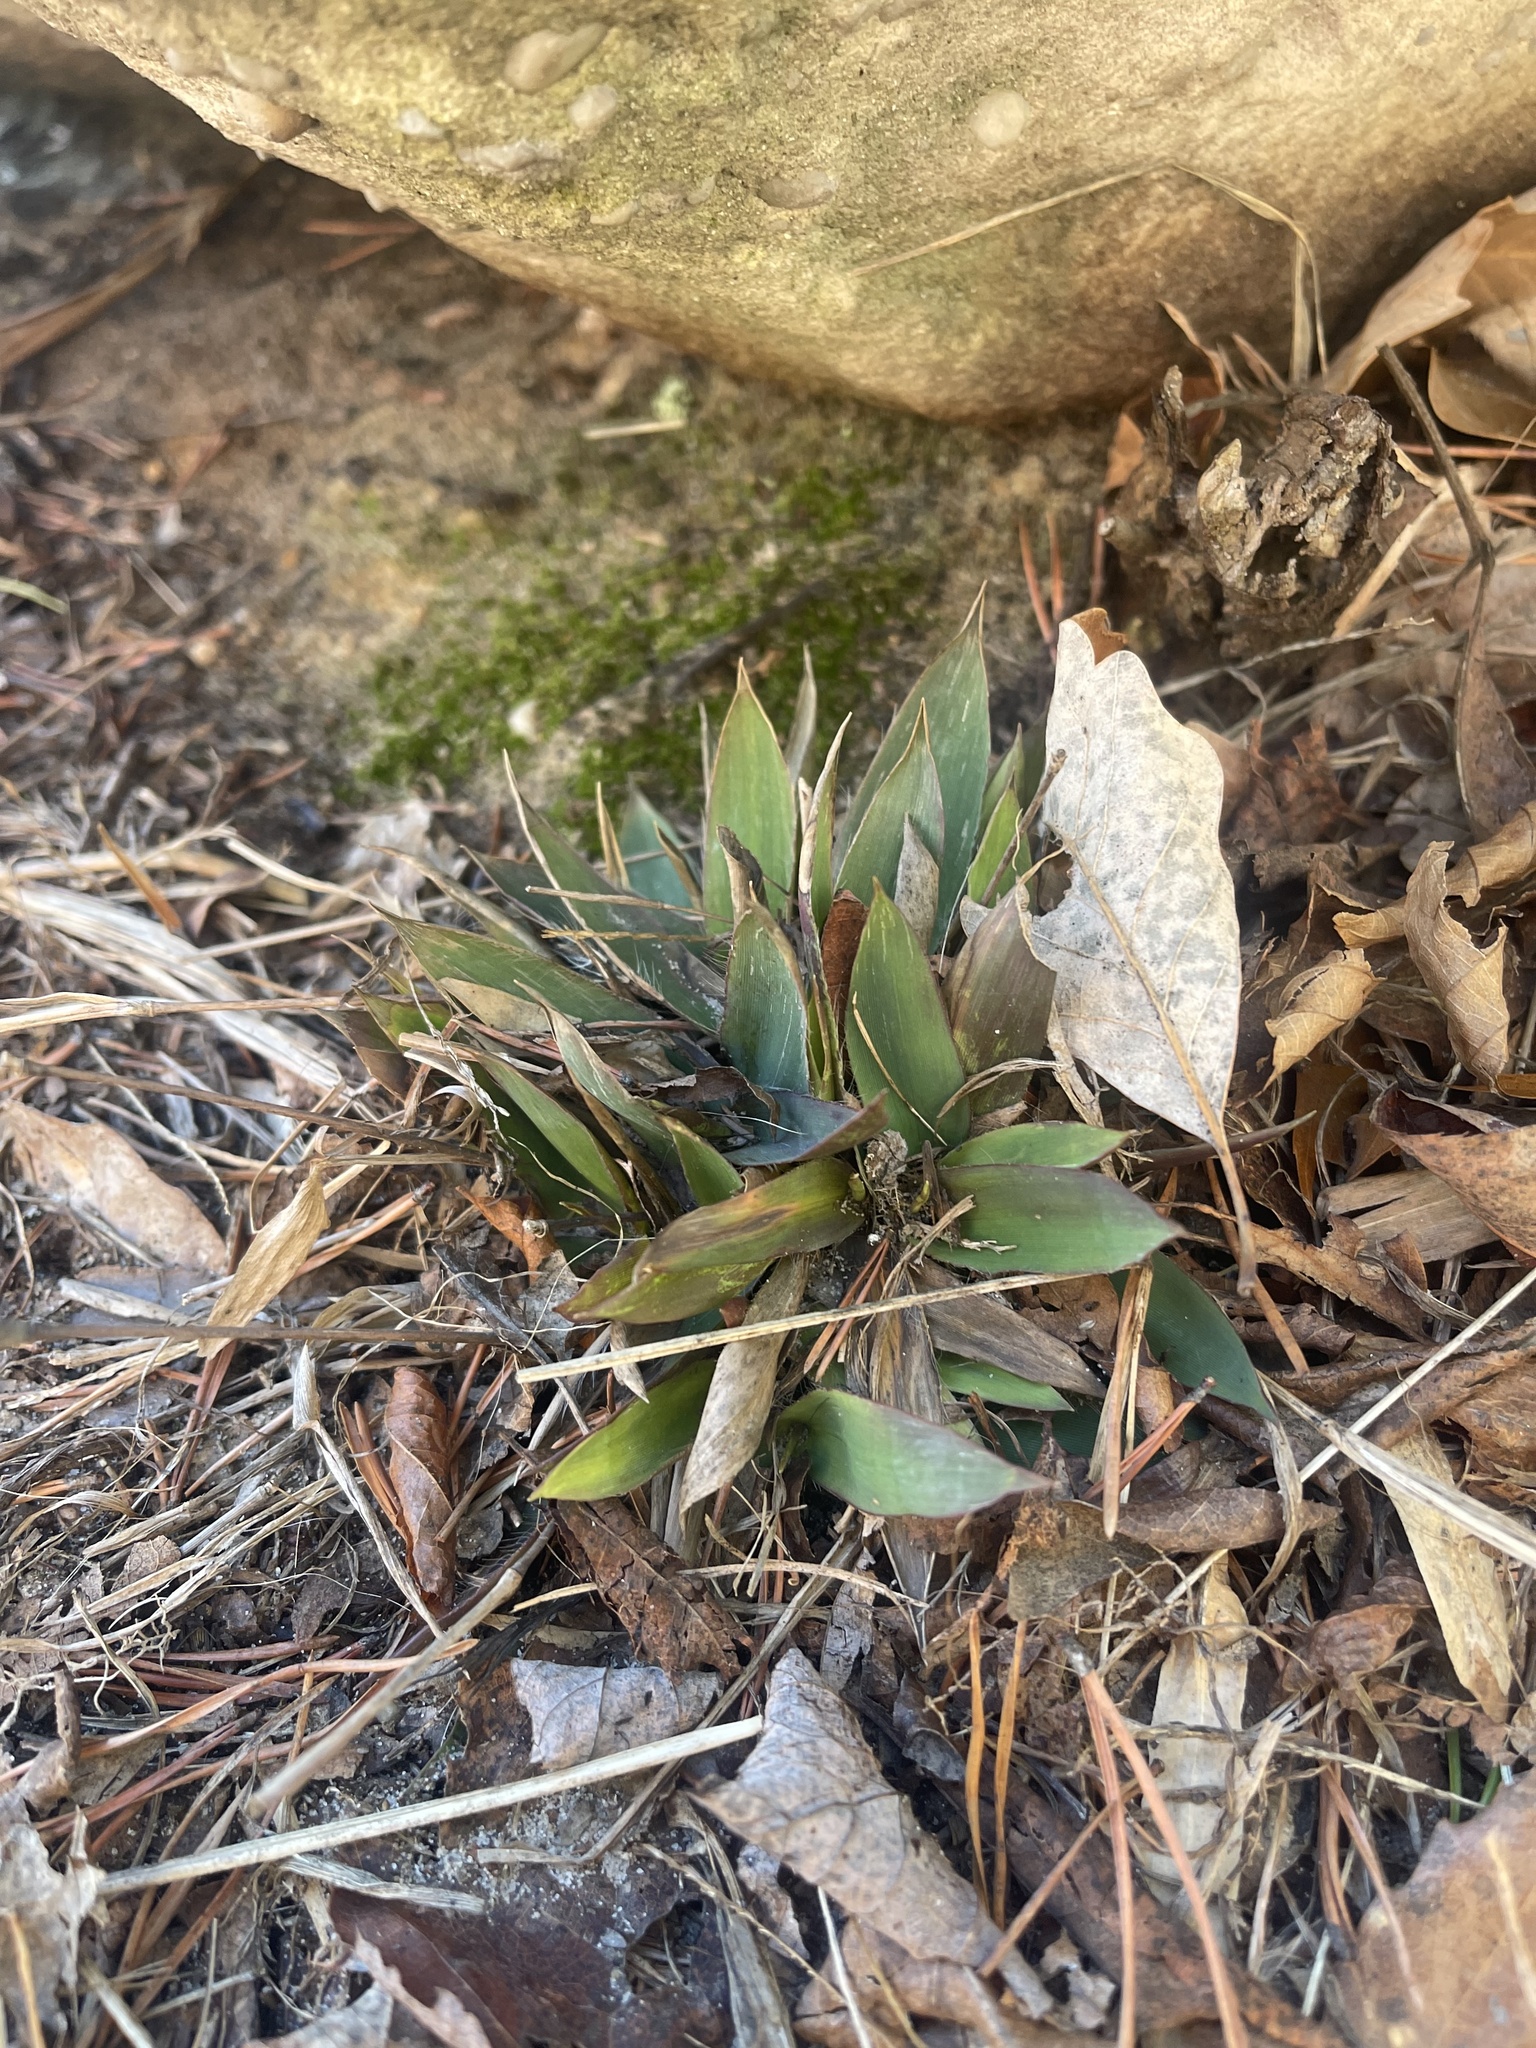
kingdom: Plantae
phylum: Tracheophyta
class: Liliopsida
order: Poales
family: Poaceae
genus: Dichanthelium
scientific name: Dichanthelium
